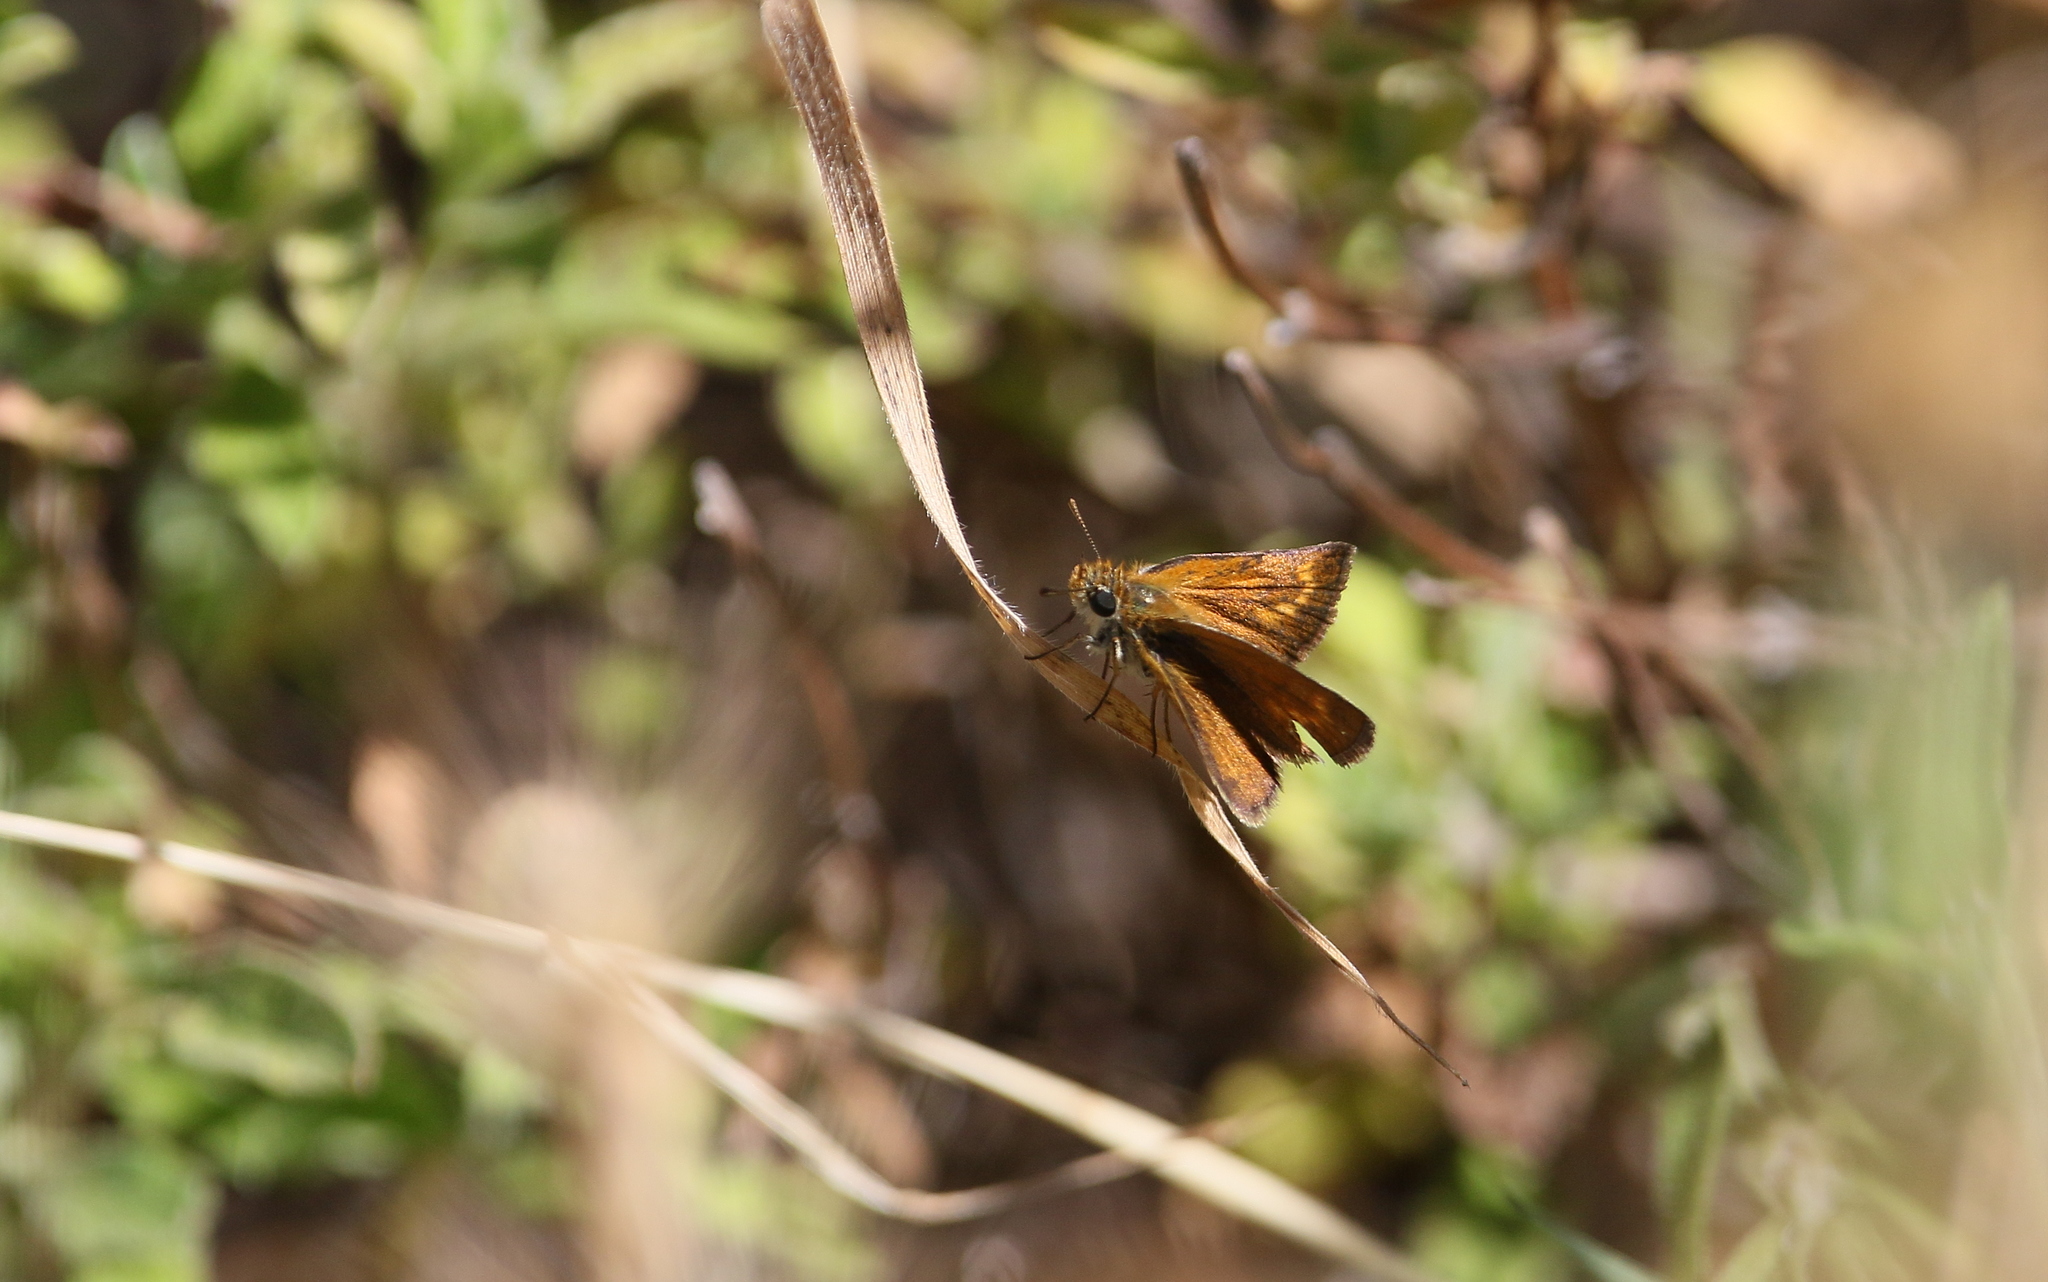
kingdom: Animalia
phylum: Arthropoda
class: Insecta
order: Lepidoptera
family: Hesperiidae
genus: Thymelicus
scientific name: Thymelicus acteon
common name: Lulworth skipper
